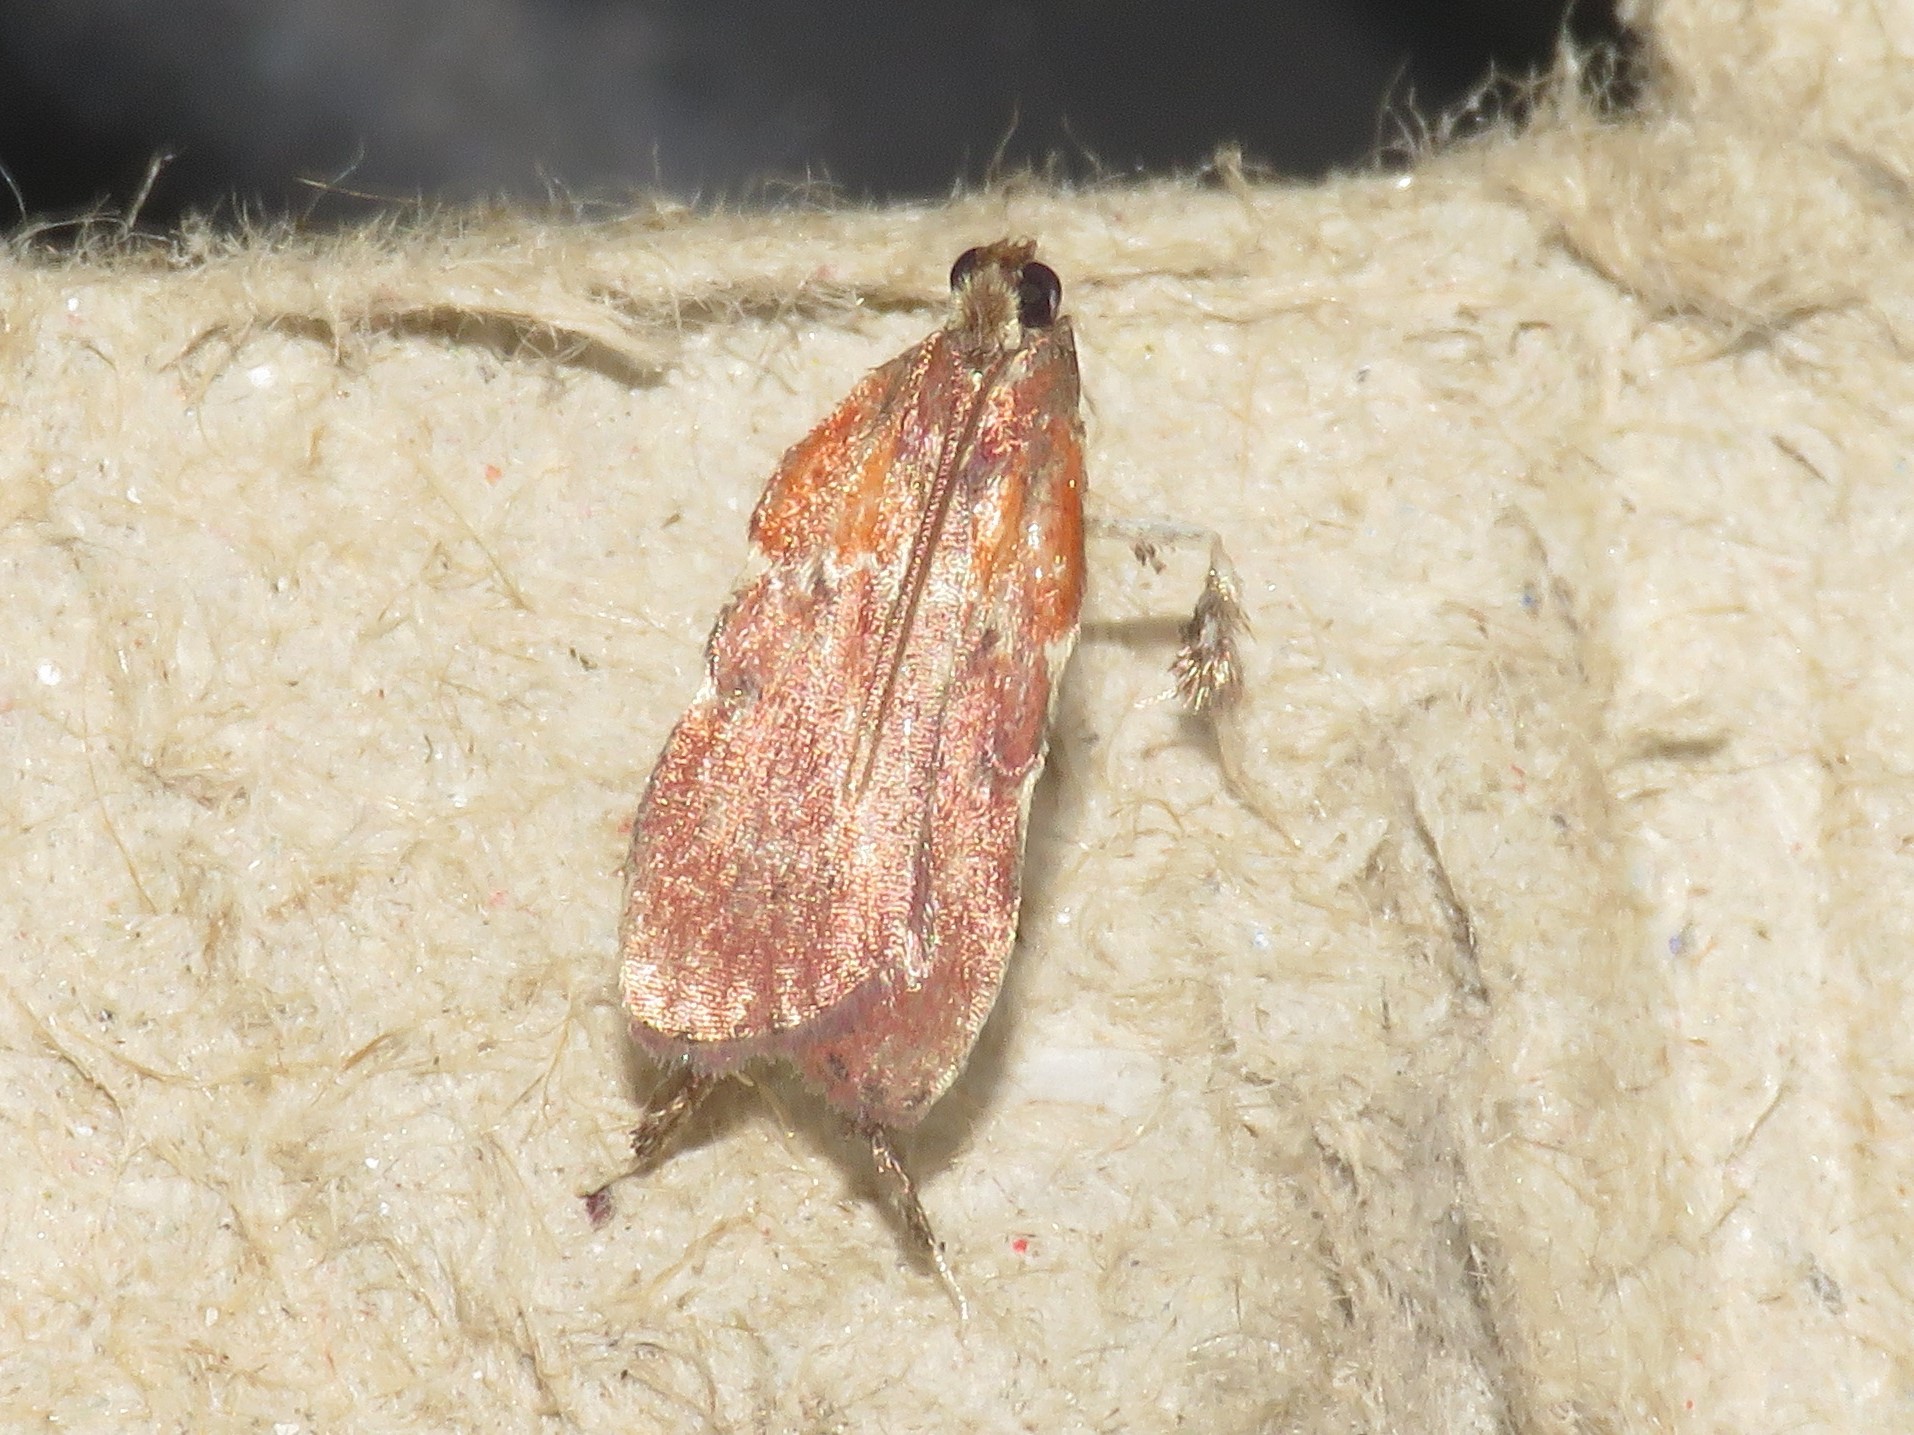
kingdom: Animalia
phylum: Arthropoda
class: Insecta
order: Lepidoptera
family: Pyralidae
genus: Galasa
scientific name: Galasa nigrinodis
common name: Boxwood leaftier moth
